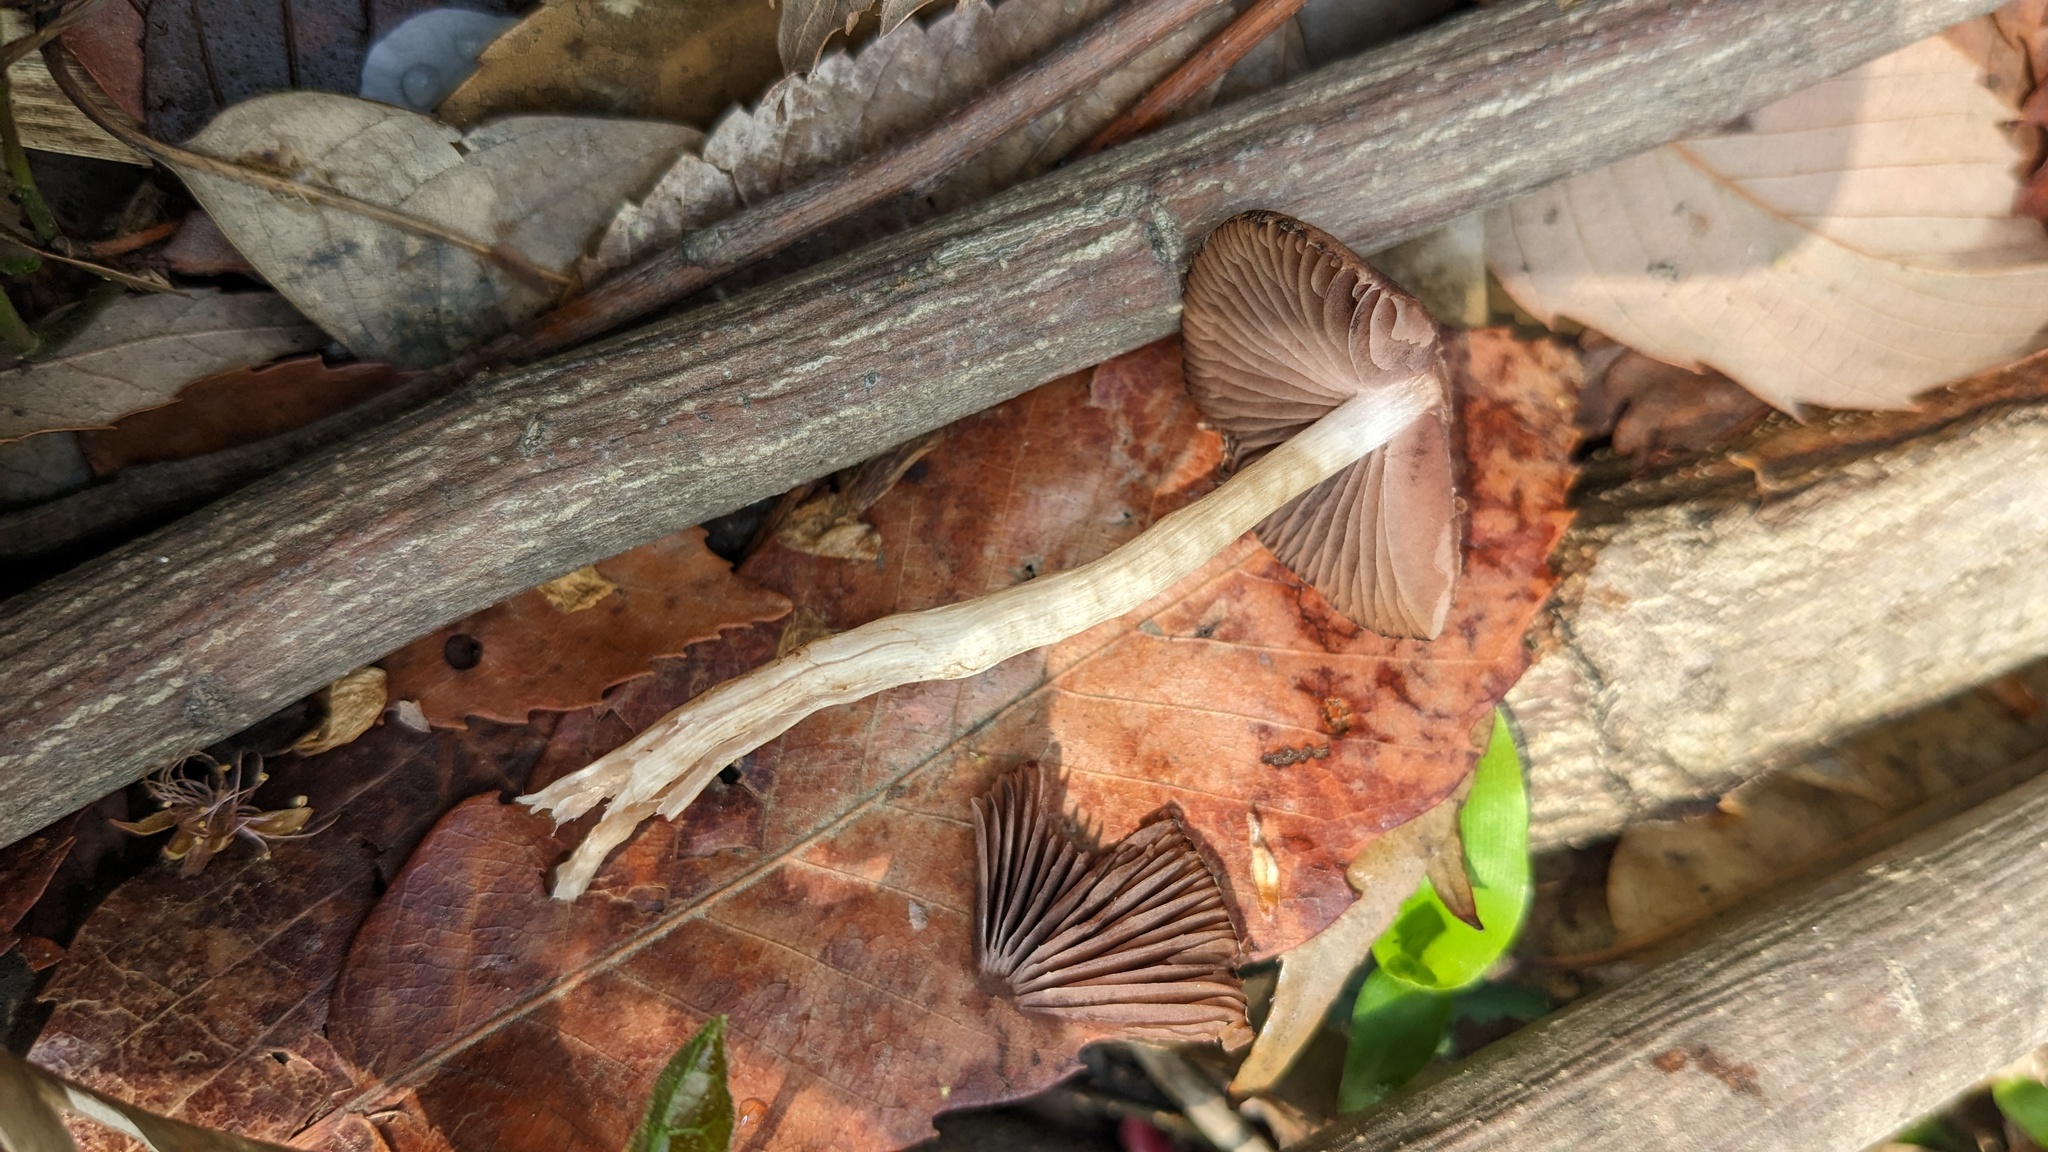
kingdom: Fungi
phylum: Basidiomycota
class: Agaricomycetes
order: Agaricales
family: Psathyrellaceae
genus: Psathyrella
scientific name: Psathyrella bipellis
